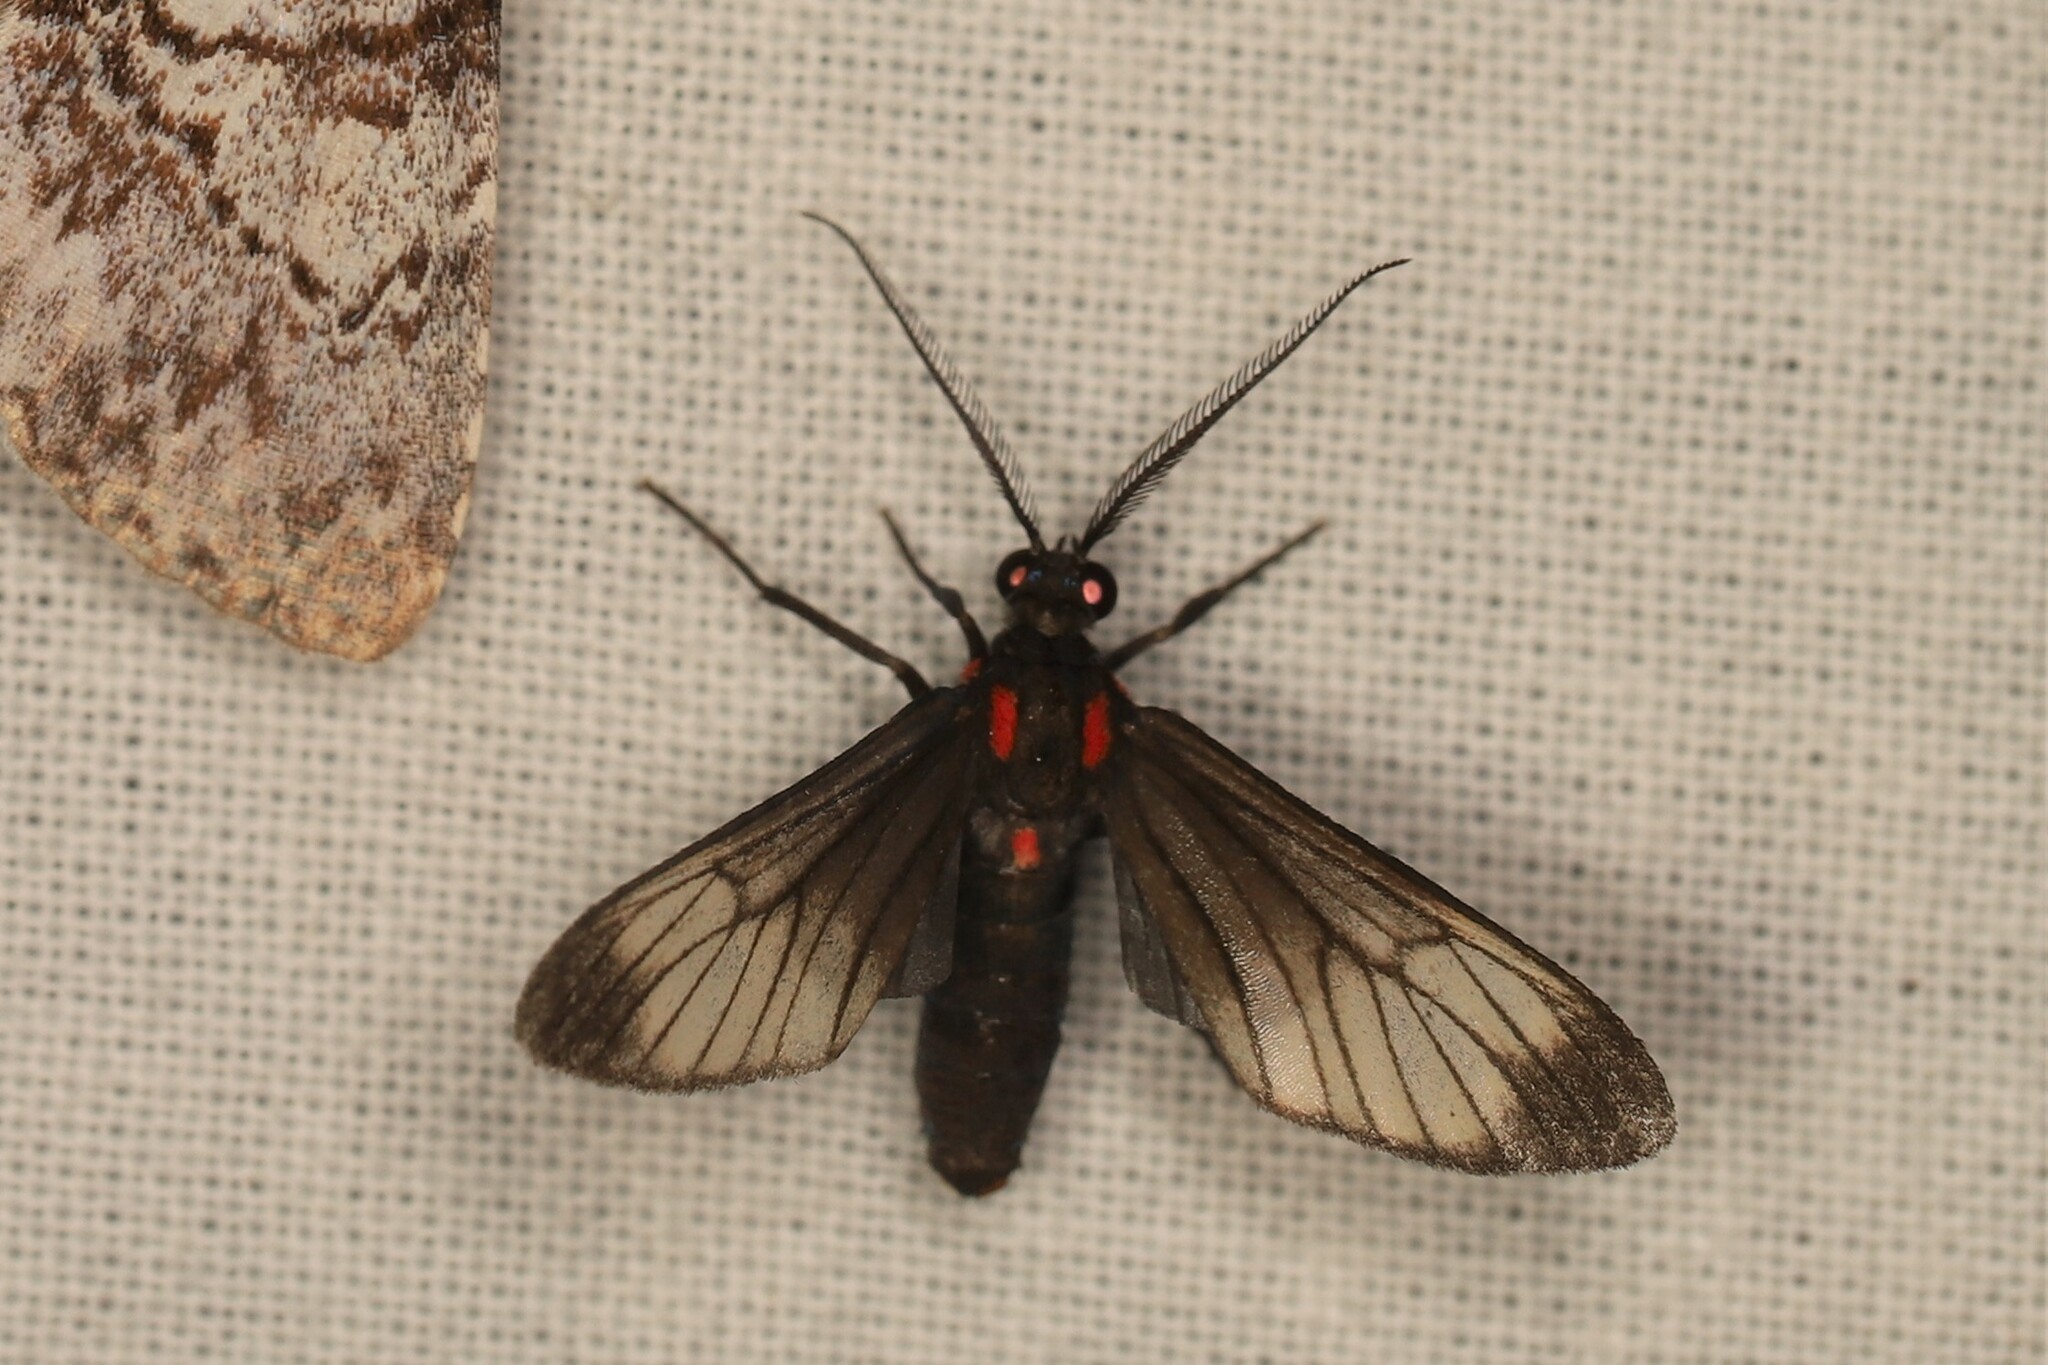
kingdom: Animalia
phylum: Arthropoda
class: Insecta
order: Lepidoptera
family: Erebidae
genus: Hyperphara
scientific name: Hyperphara clusia
